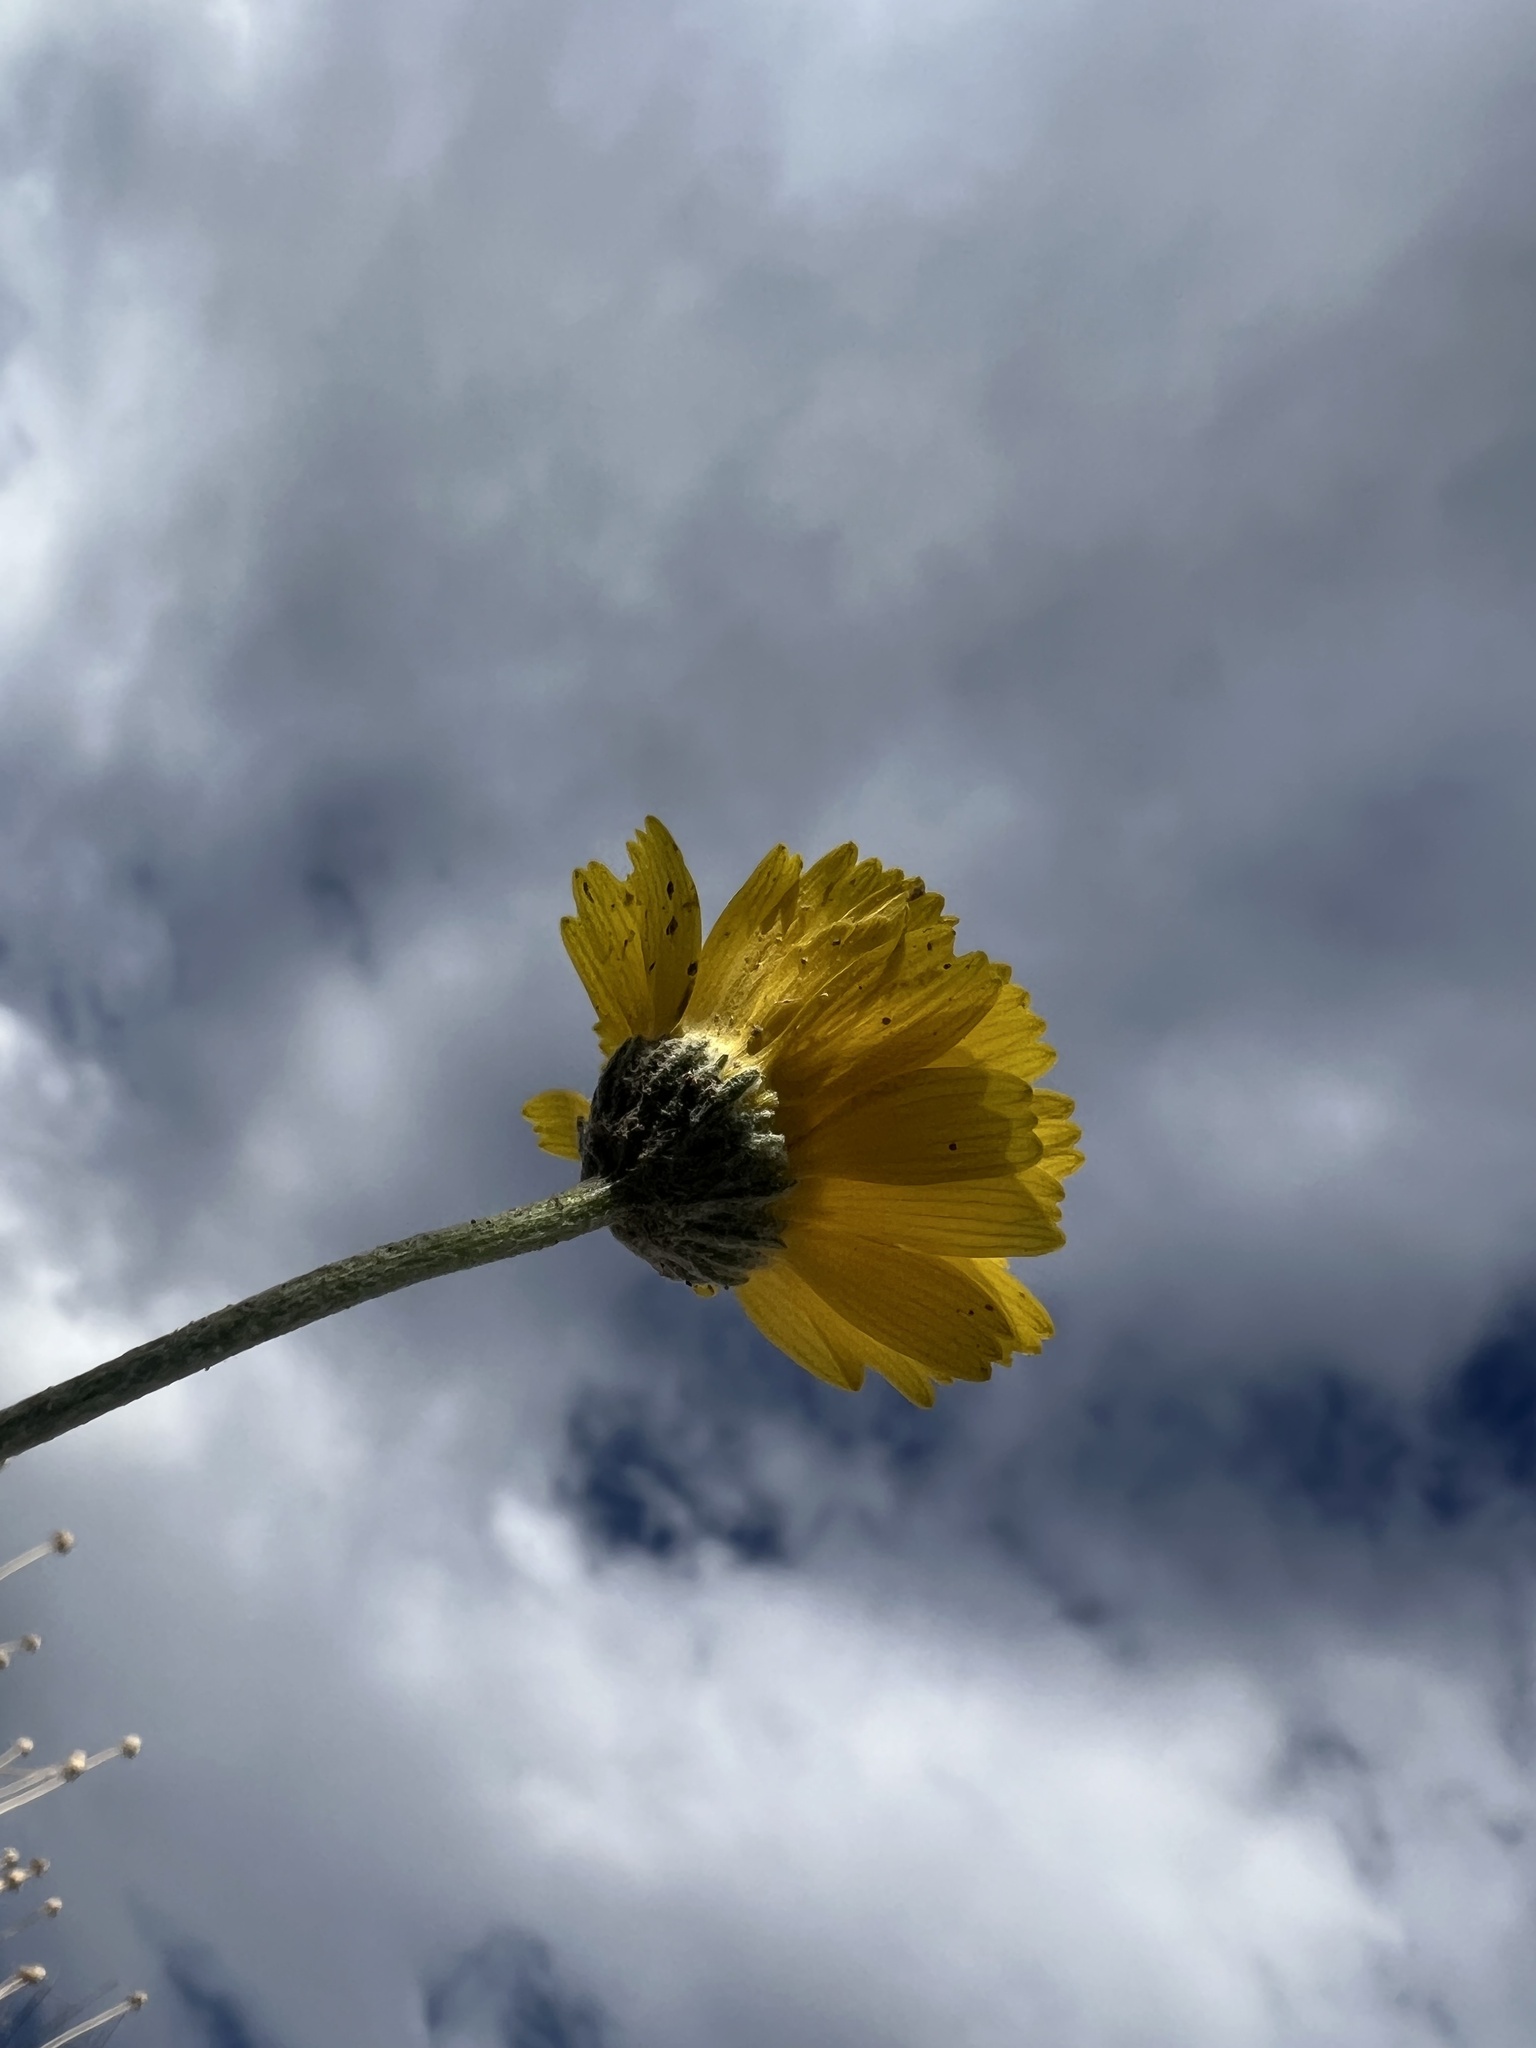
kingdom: Plantae
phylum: Tracheophyta
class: Magnoliopsida
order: Asterales
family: Asteraceae
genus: Baileya
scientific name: Baileya multiradiata
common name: Desert-marigold
